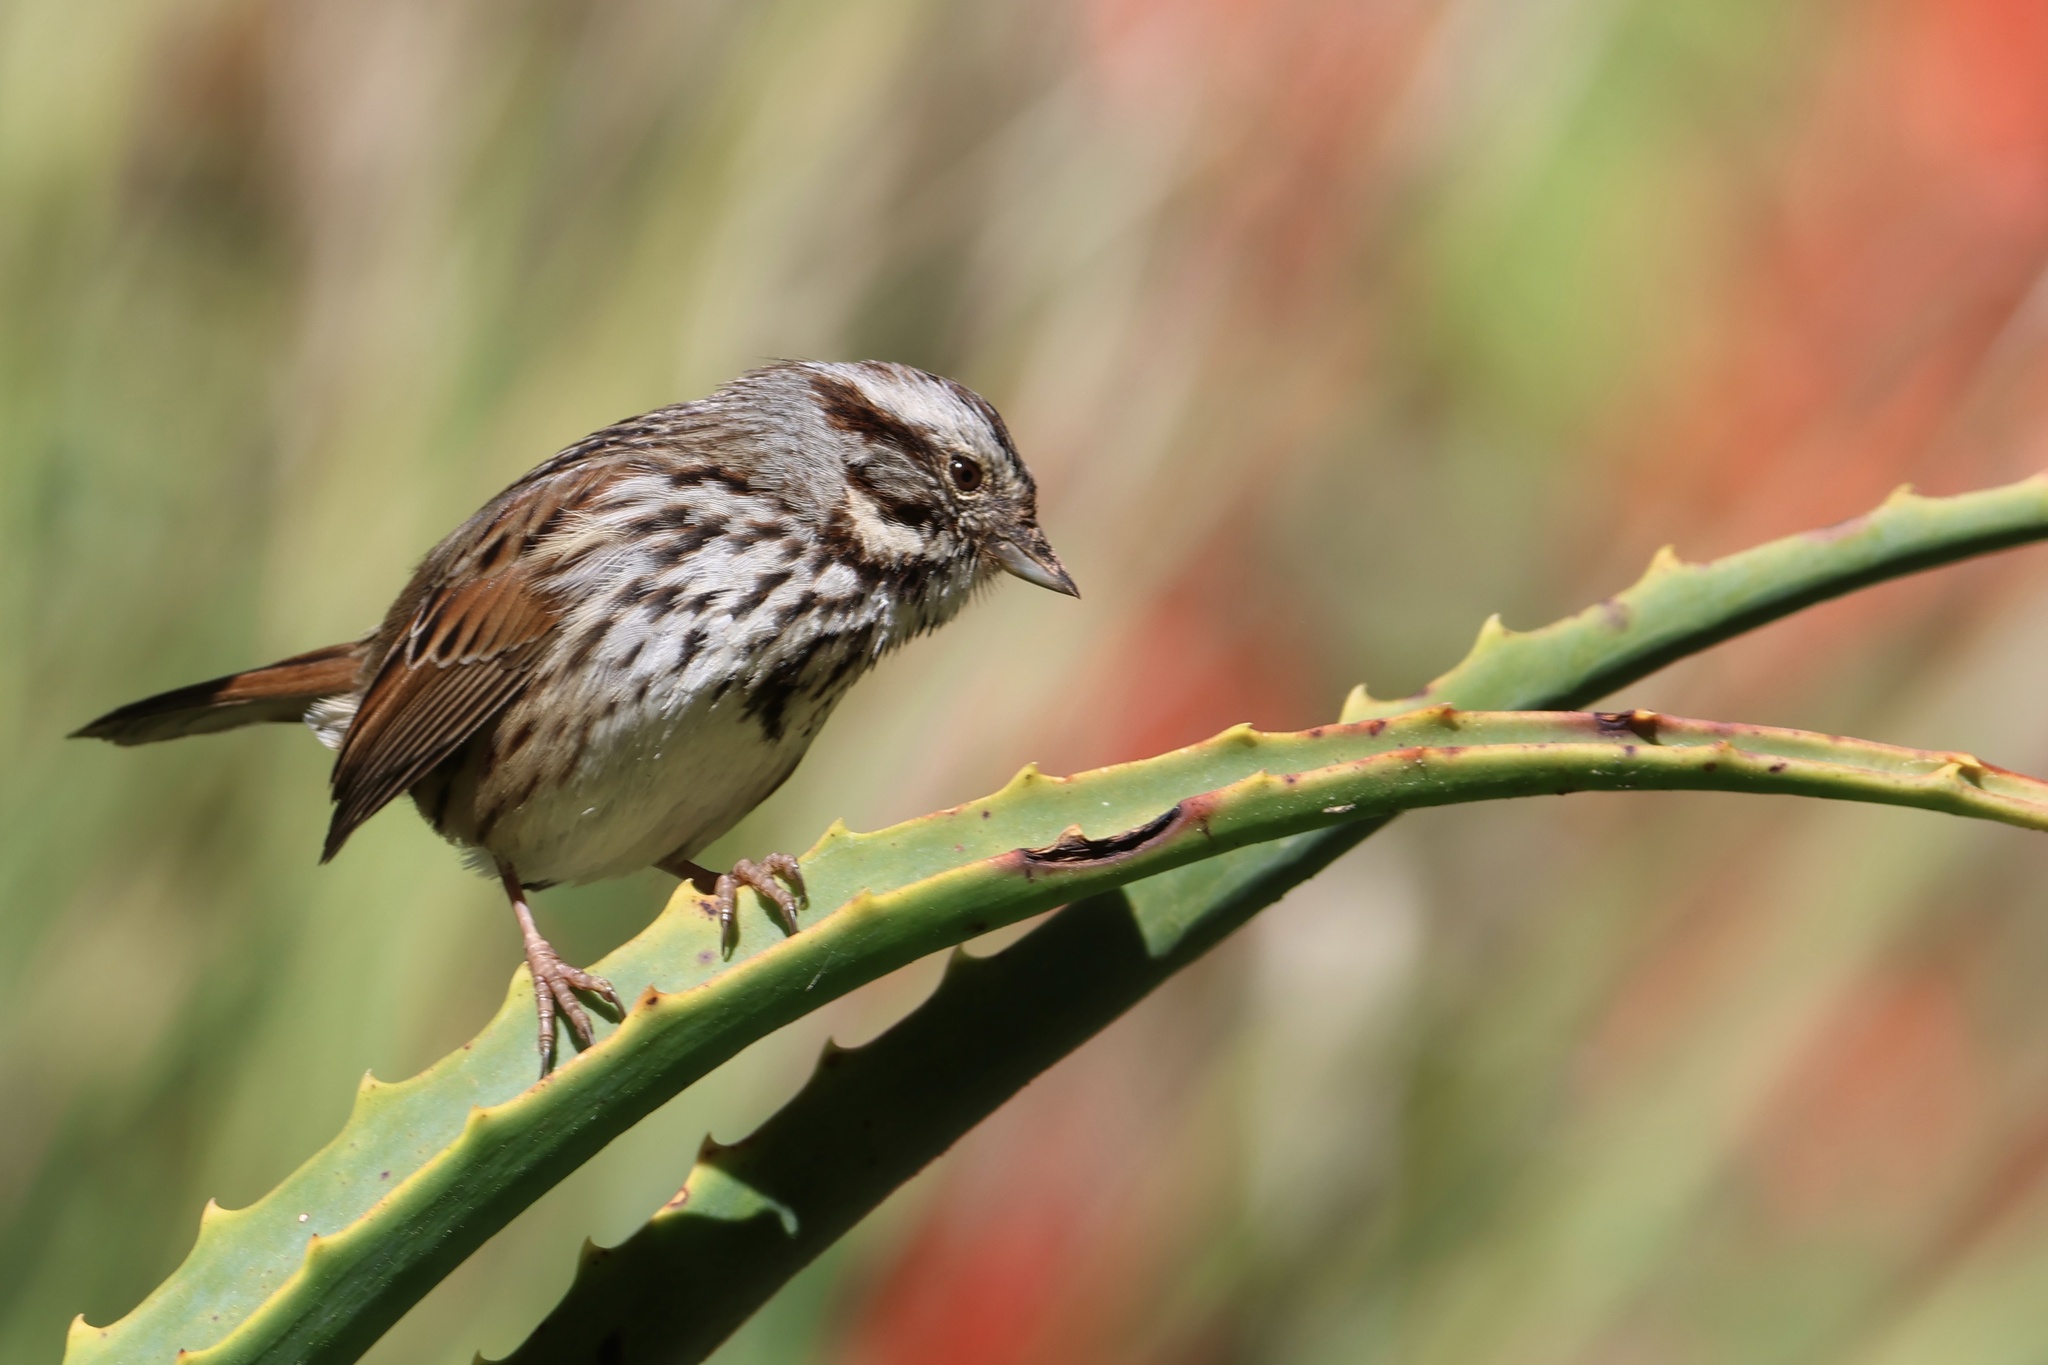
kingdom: Animalia
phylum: Chordata
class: Aves
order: Passeriformes
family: Passerellidae
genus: Melospiza
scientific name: Melospiza melodia
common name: Song sparrow
